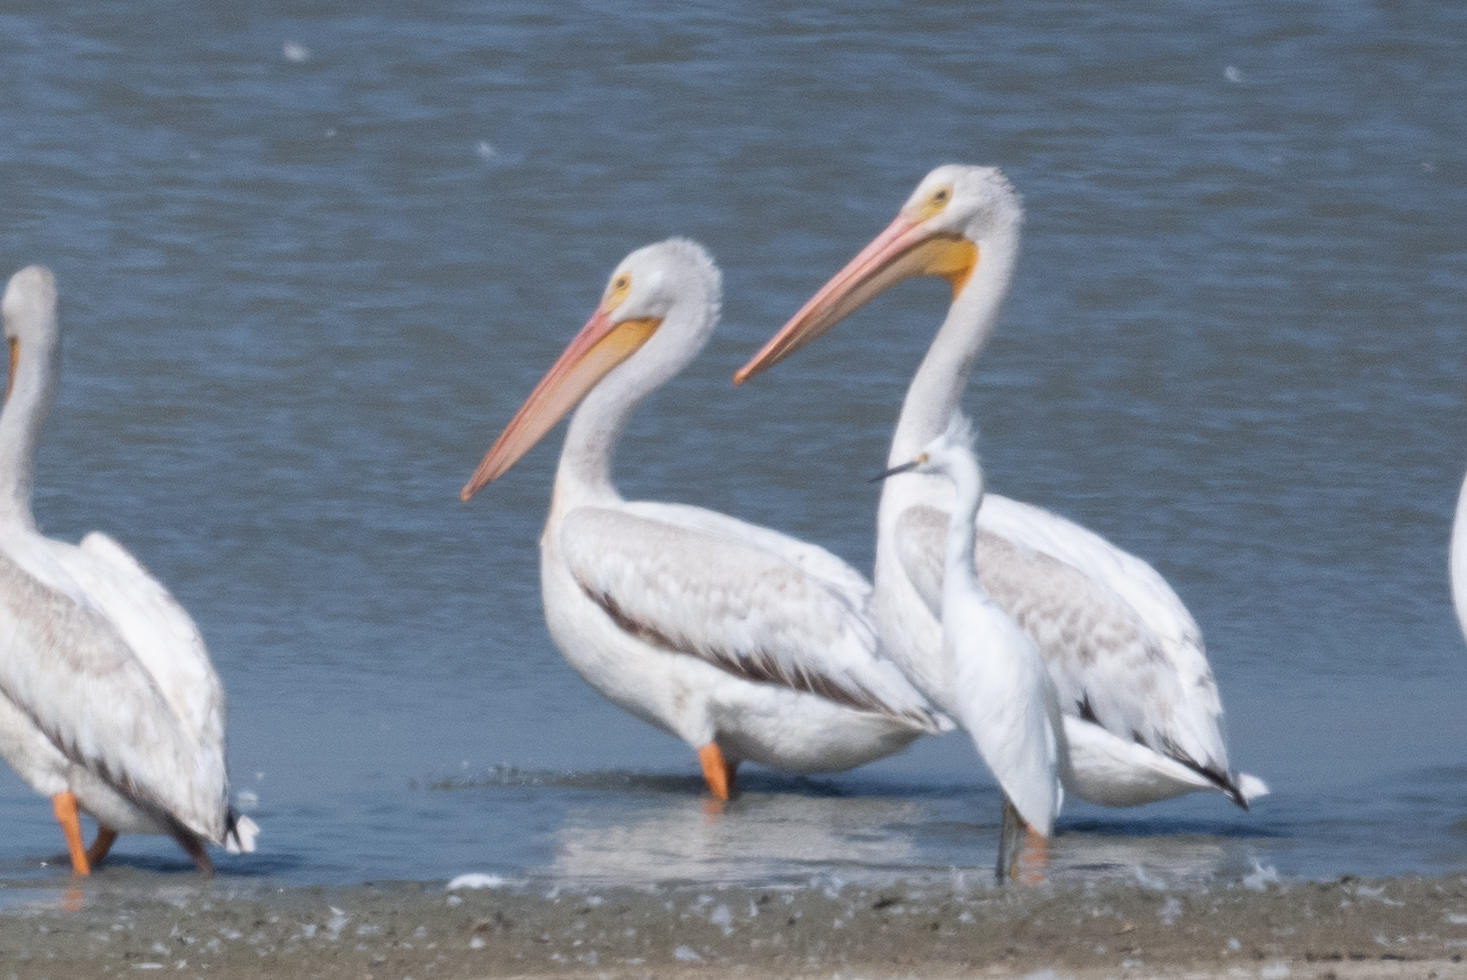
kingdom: Animalia
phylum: Chordata
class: Aves
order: Pelecaniformes
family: Pelecanidae
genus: Pelecanus
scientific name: Pelecanus erythrorhynchos
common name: American white pelican
